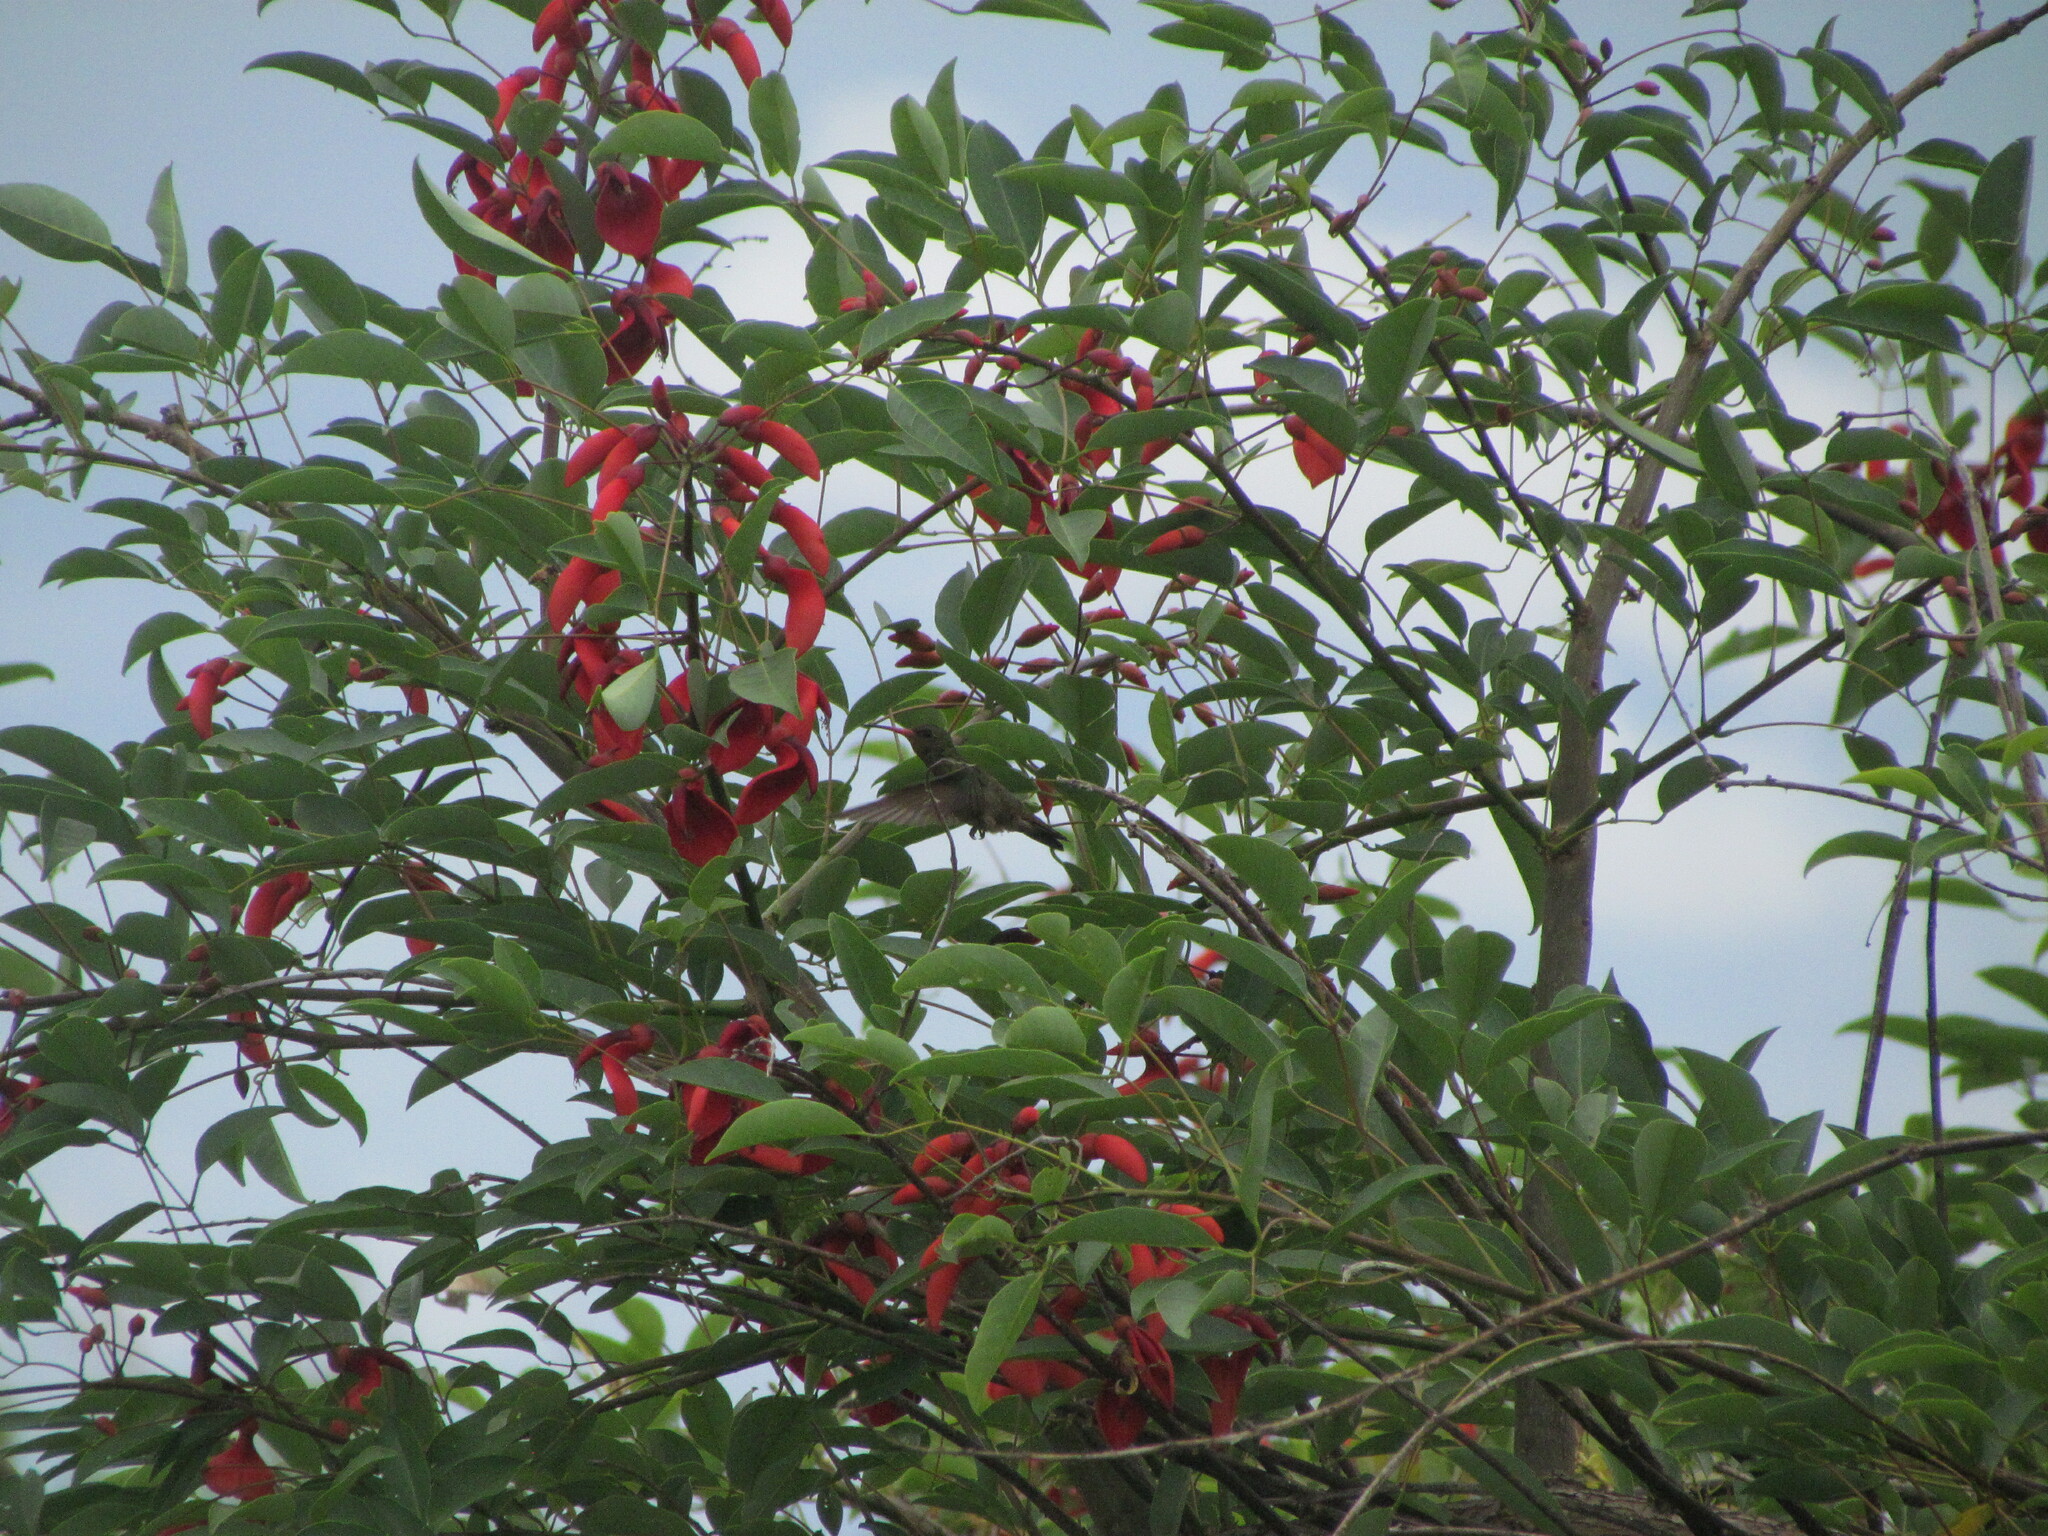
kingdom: Plantae
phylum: Tracheophyta
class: Magnoliopsida
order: Fabales
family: Fabaceae
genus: Erythrina
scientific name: Erythrina crista-galli
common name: Cockspur coral tree
